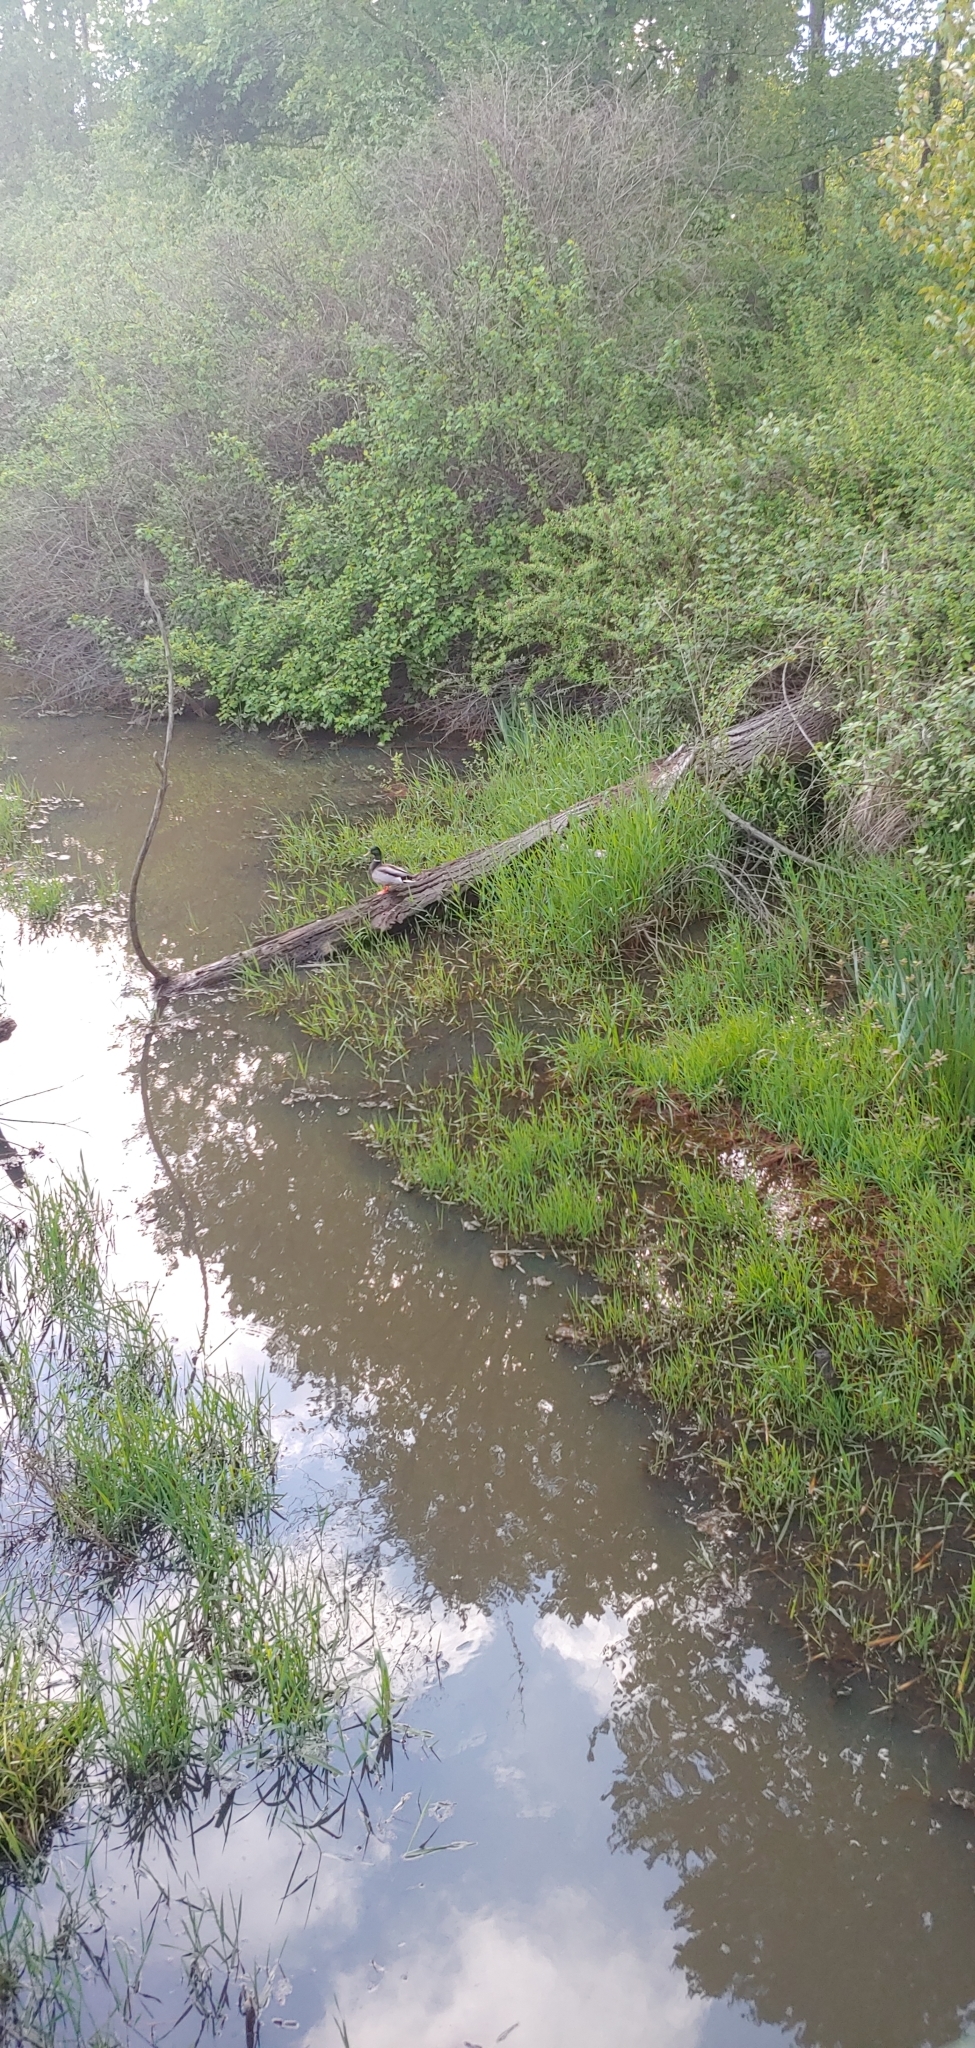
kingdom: Animalia
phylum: Chordata
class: Aves
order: Anseriformes
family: Anatidae
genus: Anas
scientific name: Anas platyrhynchos
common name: Mallard
